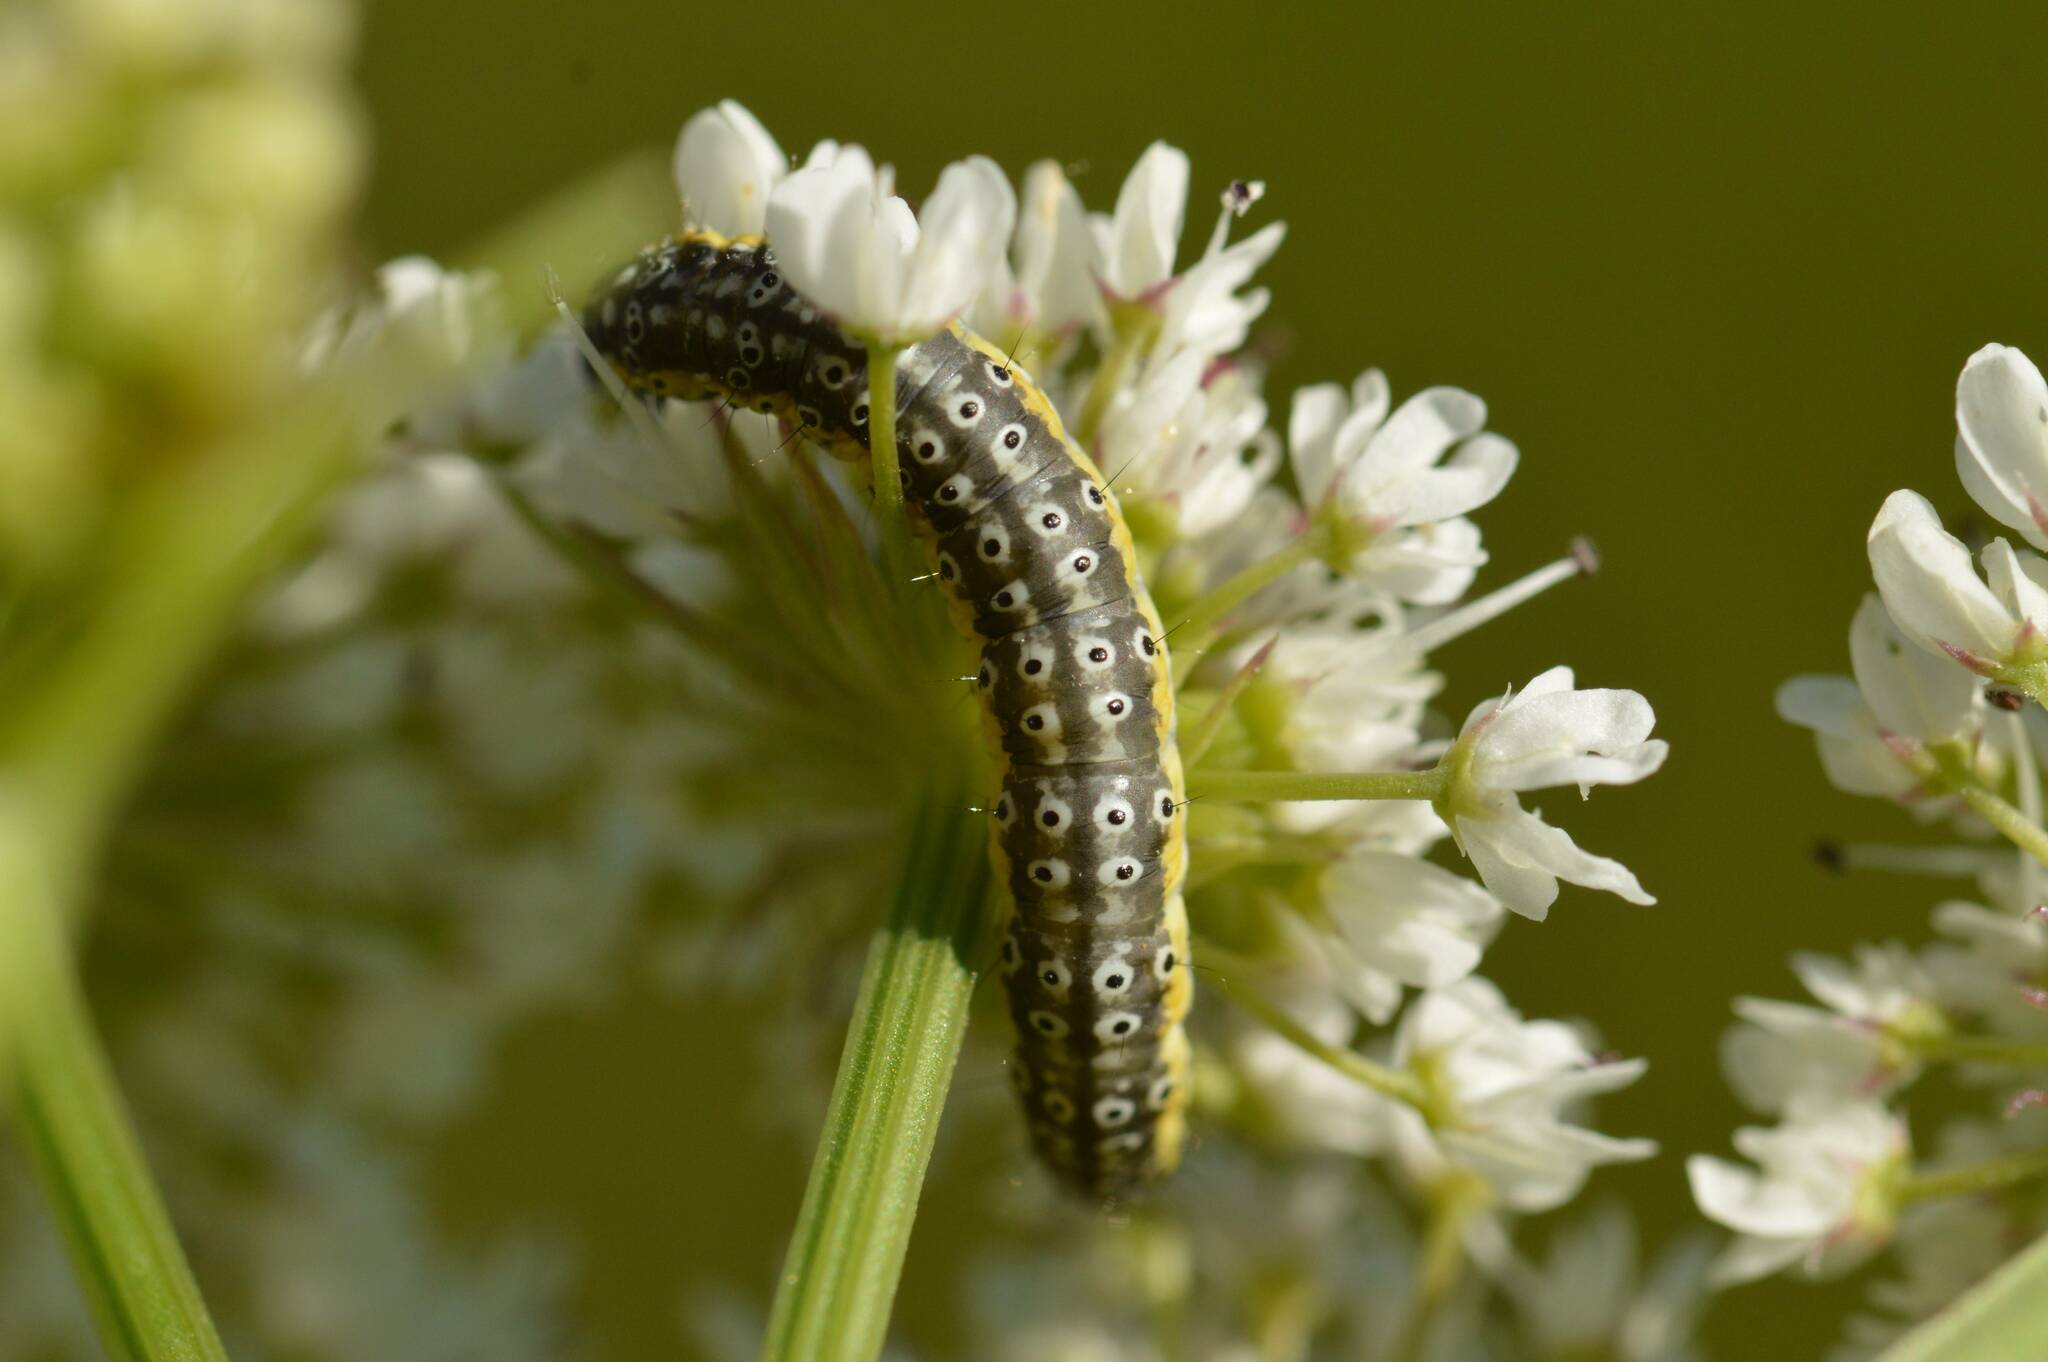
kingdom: Animalia
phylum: Arthropoda
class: Insecta
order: Lepidoptera
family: Depressariidae
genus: Depressaria
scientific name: Depressaria apiella
